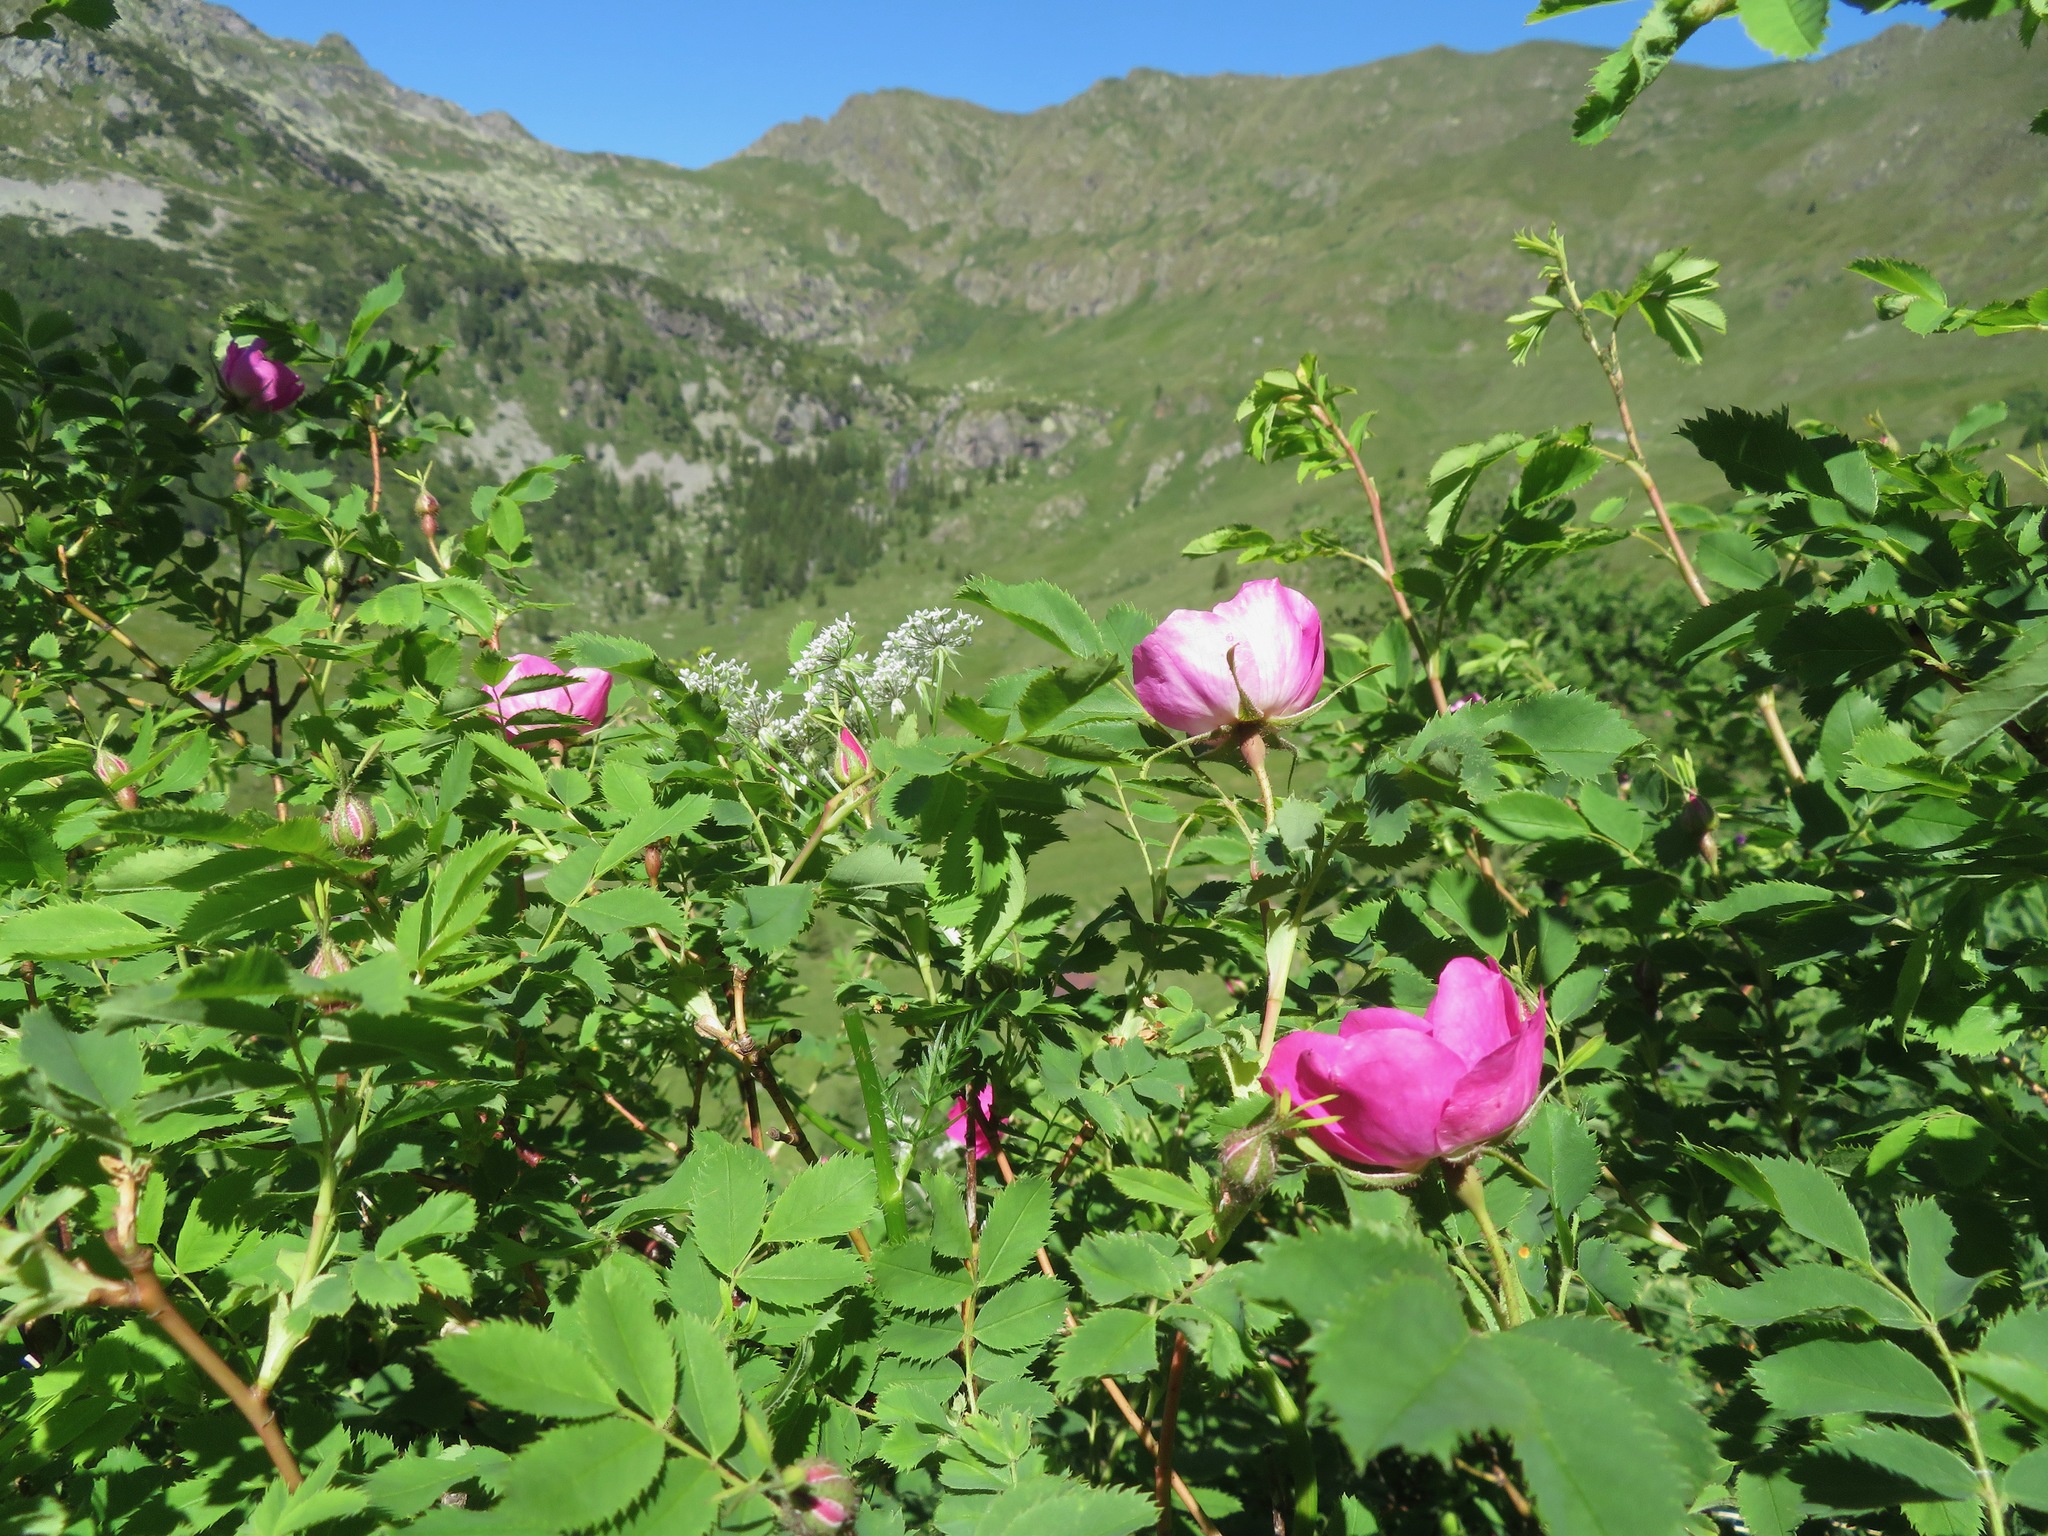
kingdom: Plantae
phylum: Tracheophyta
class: Magnoliopsida
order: Rosales
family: Rosaceae
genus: Rosa
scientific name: Rosa pendulina
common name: Alpine rose
